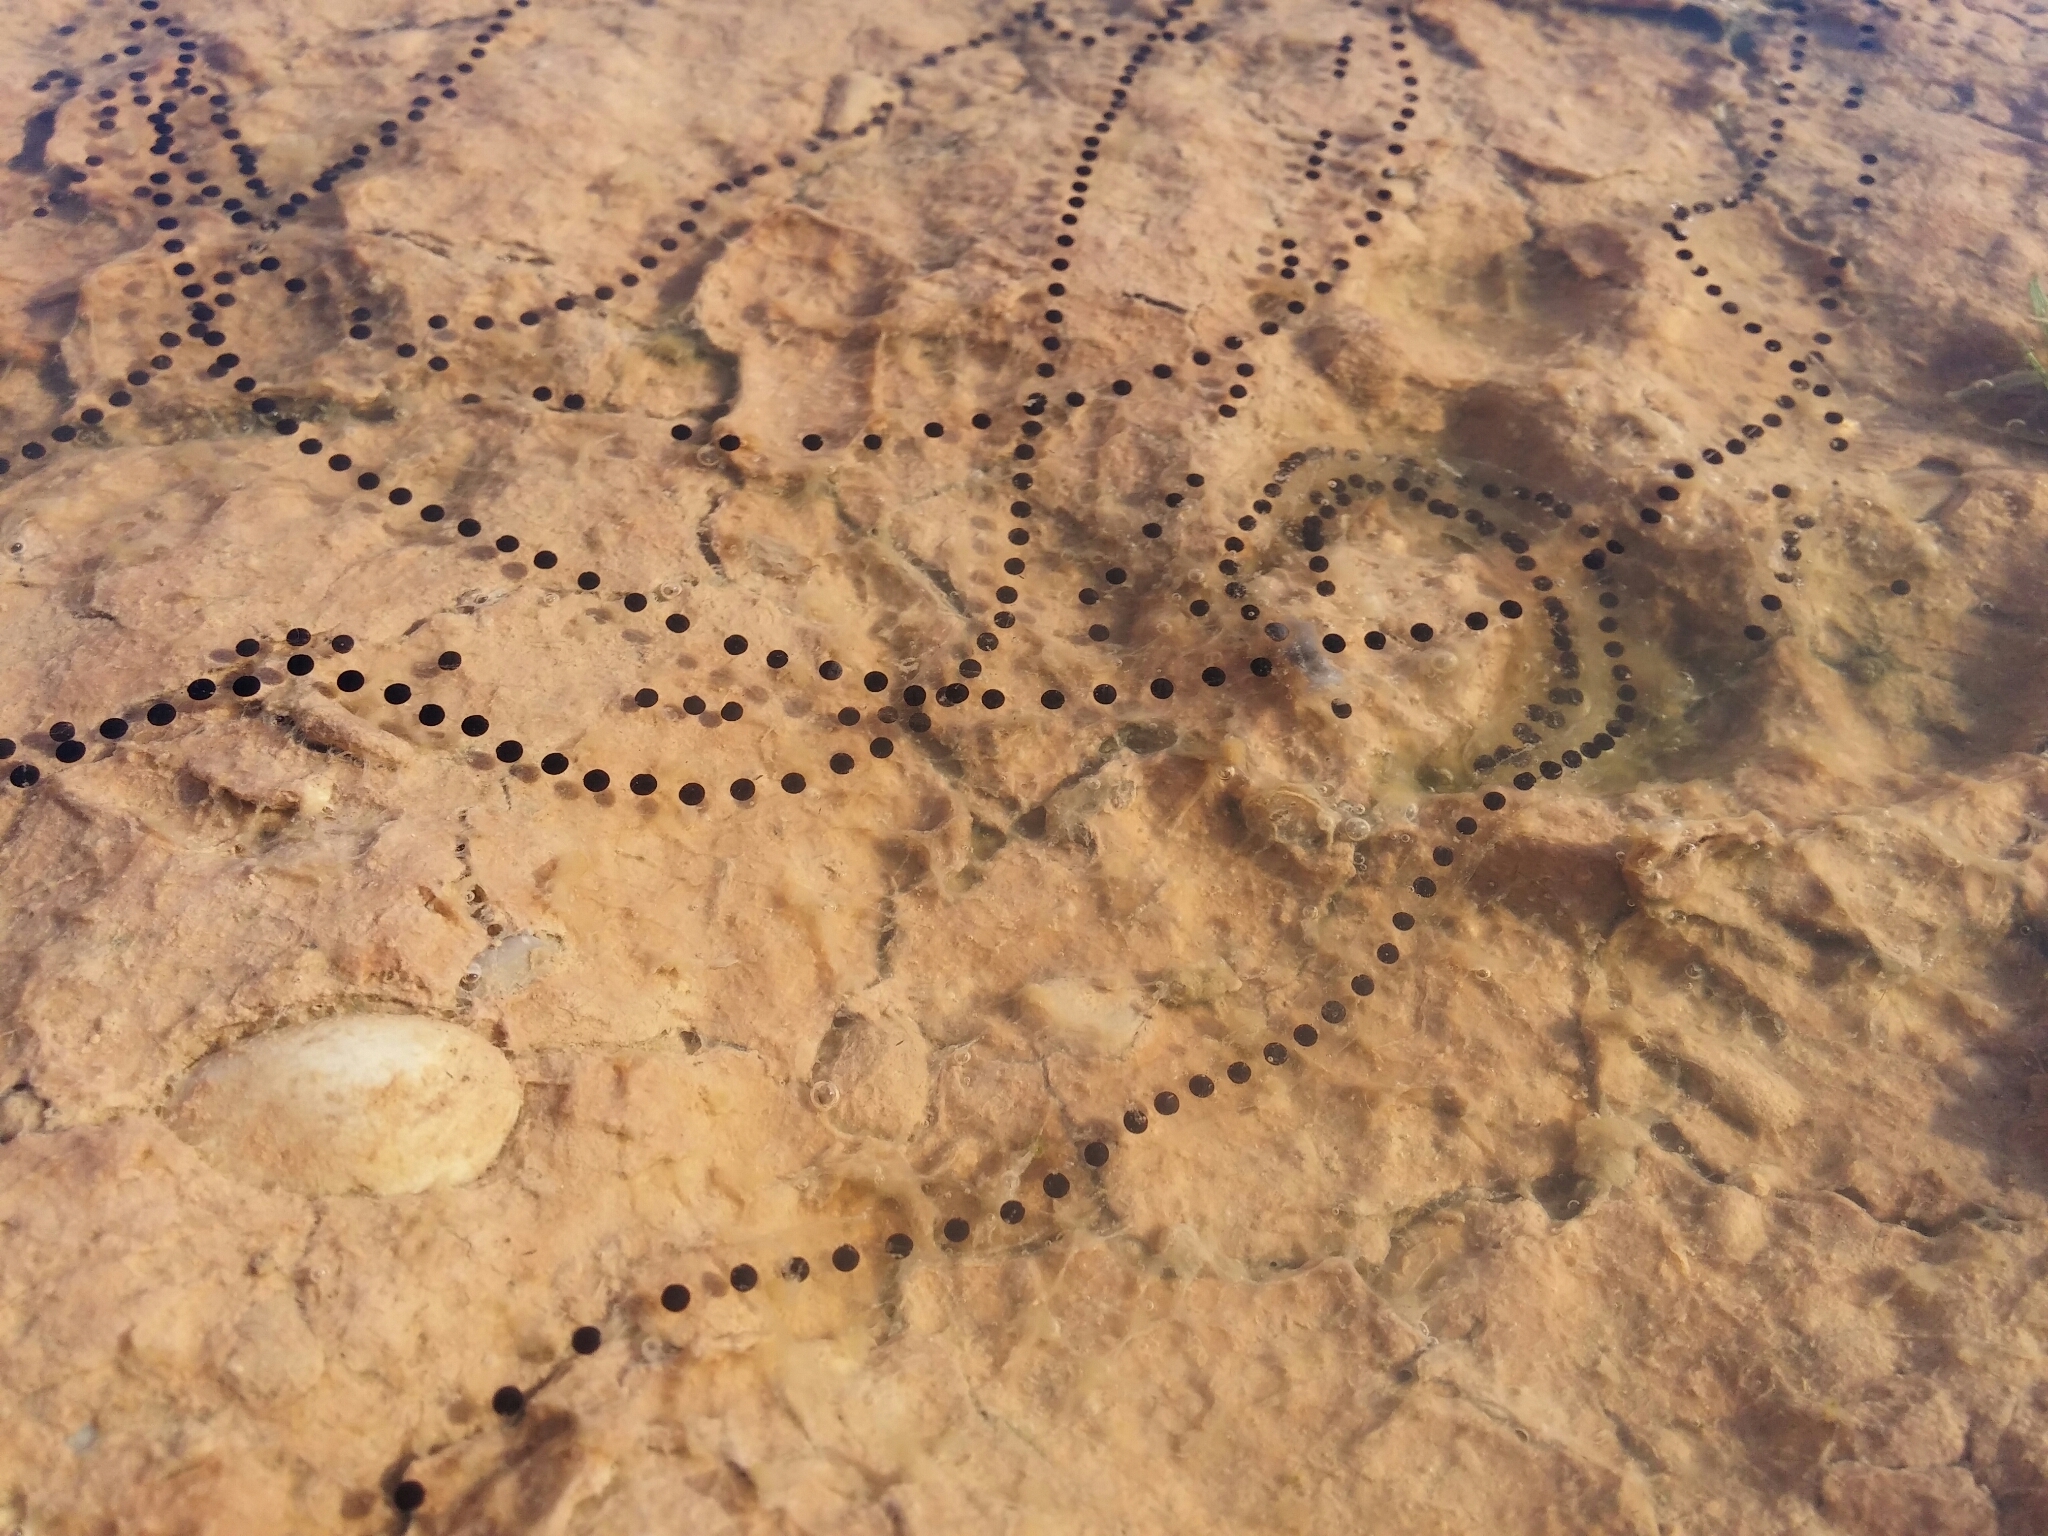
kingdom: Animalia
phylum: Chordata
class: Amphibia
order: Anura
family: Bufonidae
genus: Epidalea
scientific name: Epidalea calamita
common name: Natterjack toad
